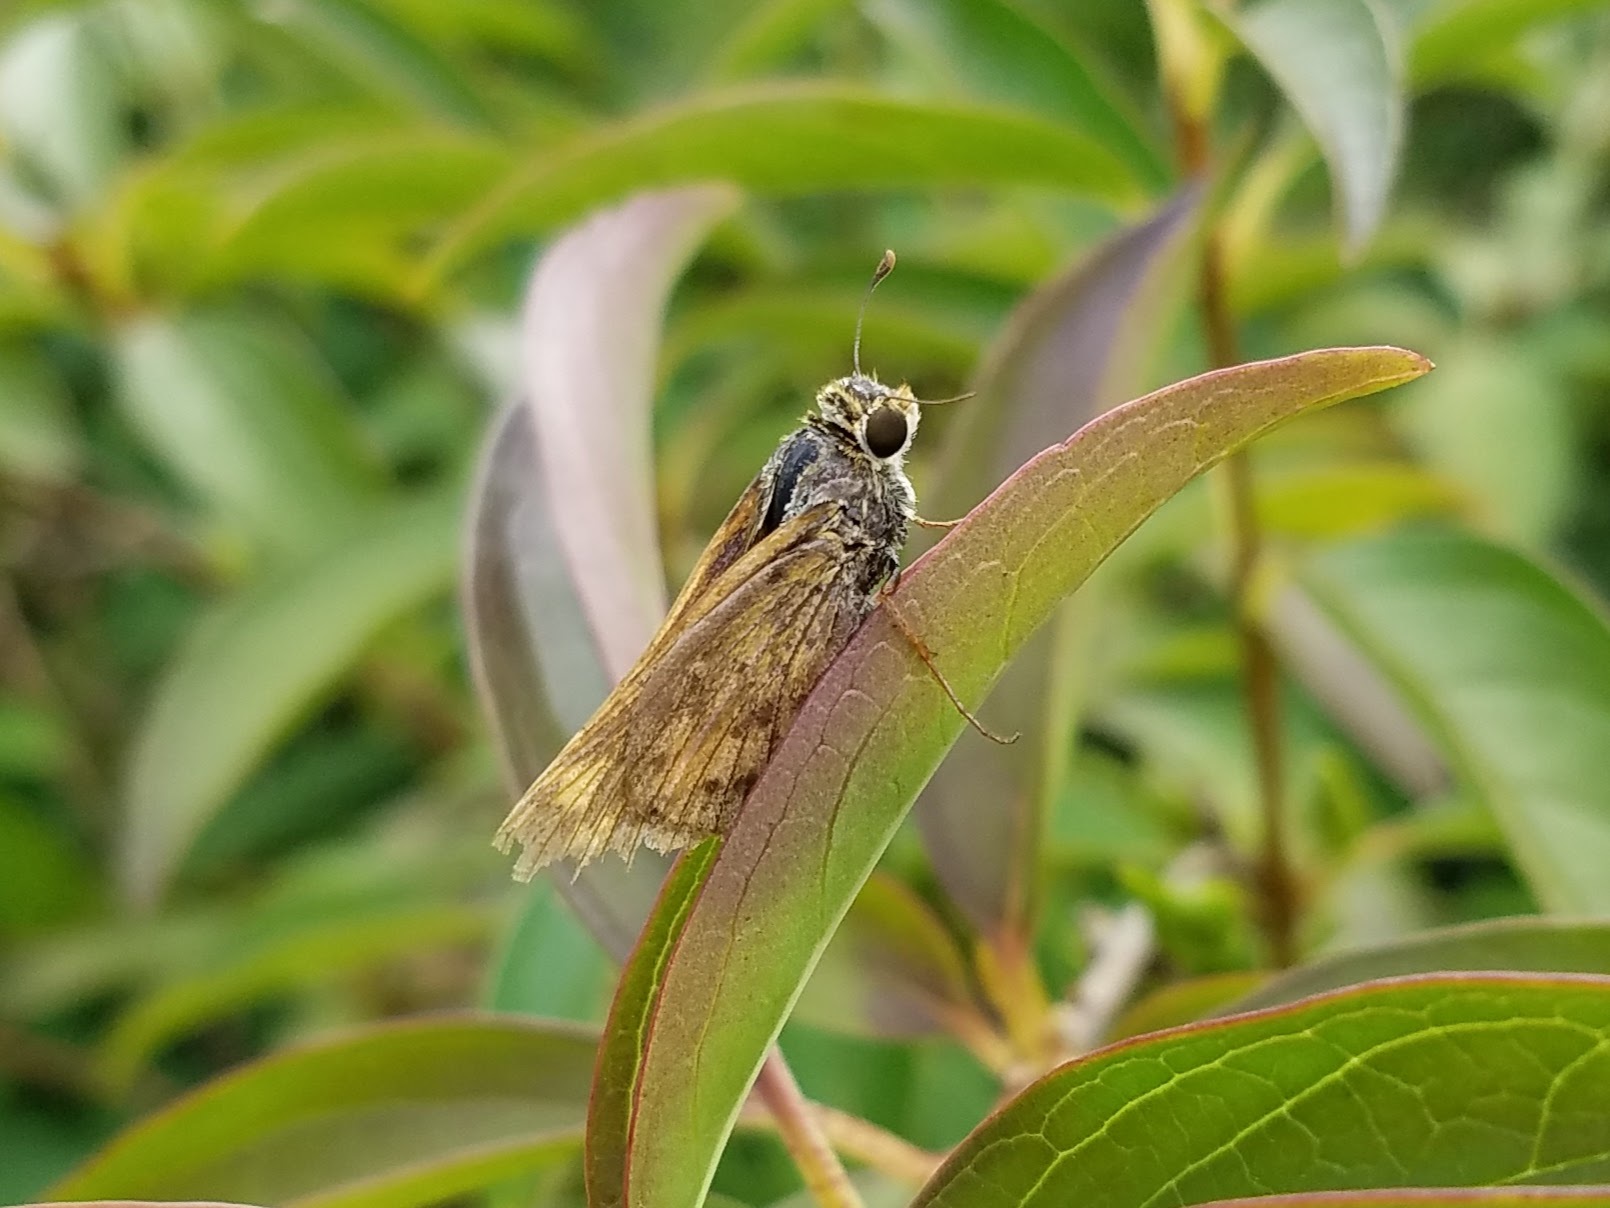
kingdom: Animalia
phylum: Arthropoda
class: Insecta
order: Lepidoptera
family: Hesperiidae
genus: Hylephila
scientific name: Hylephila phyleus
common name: Fiery skipper
